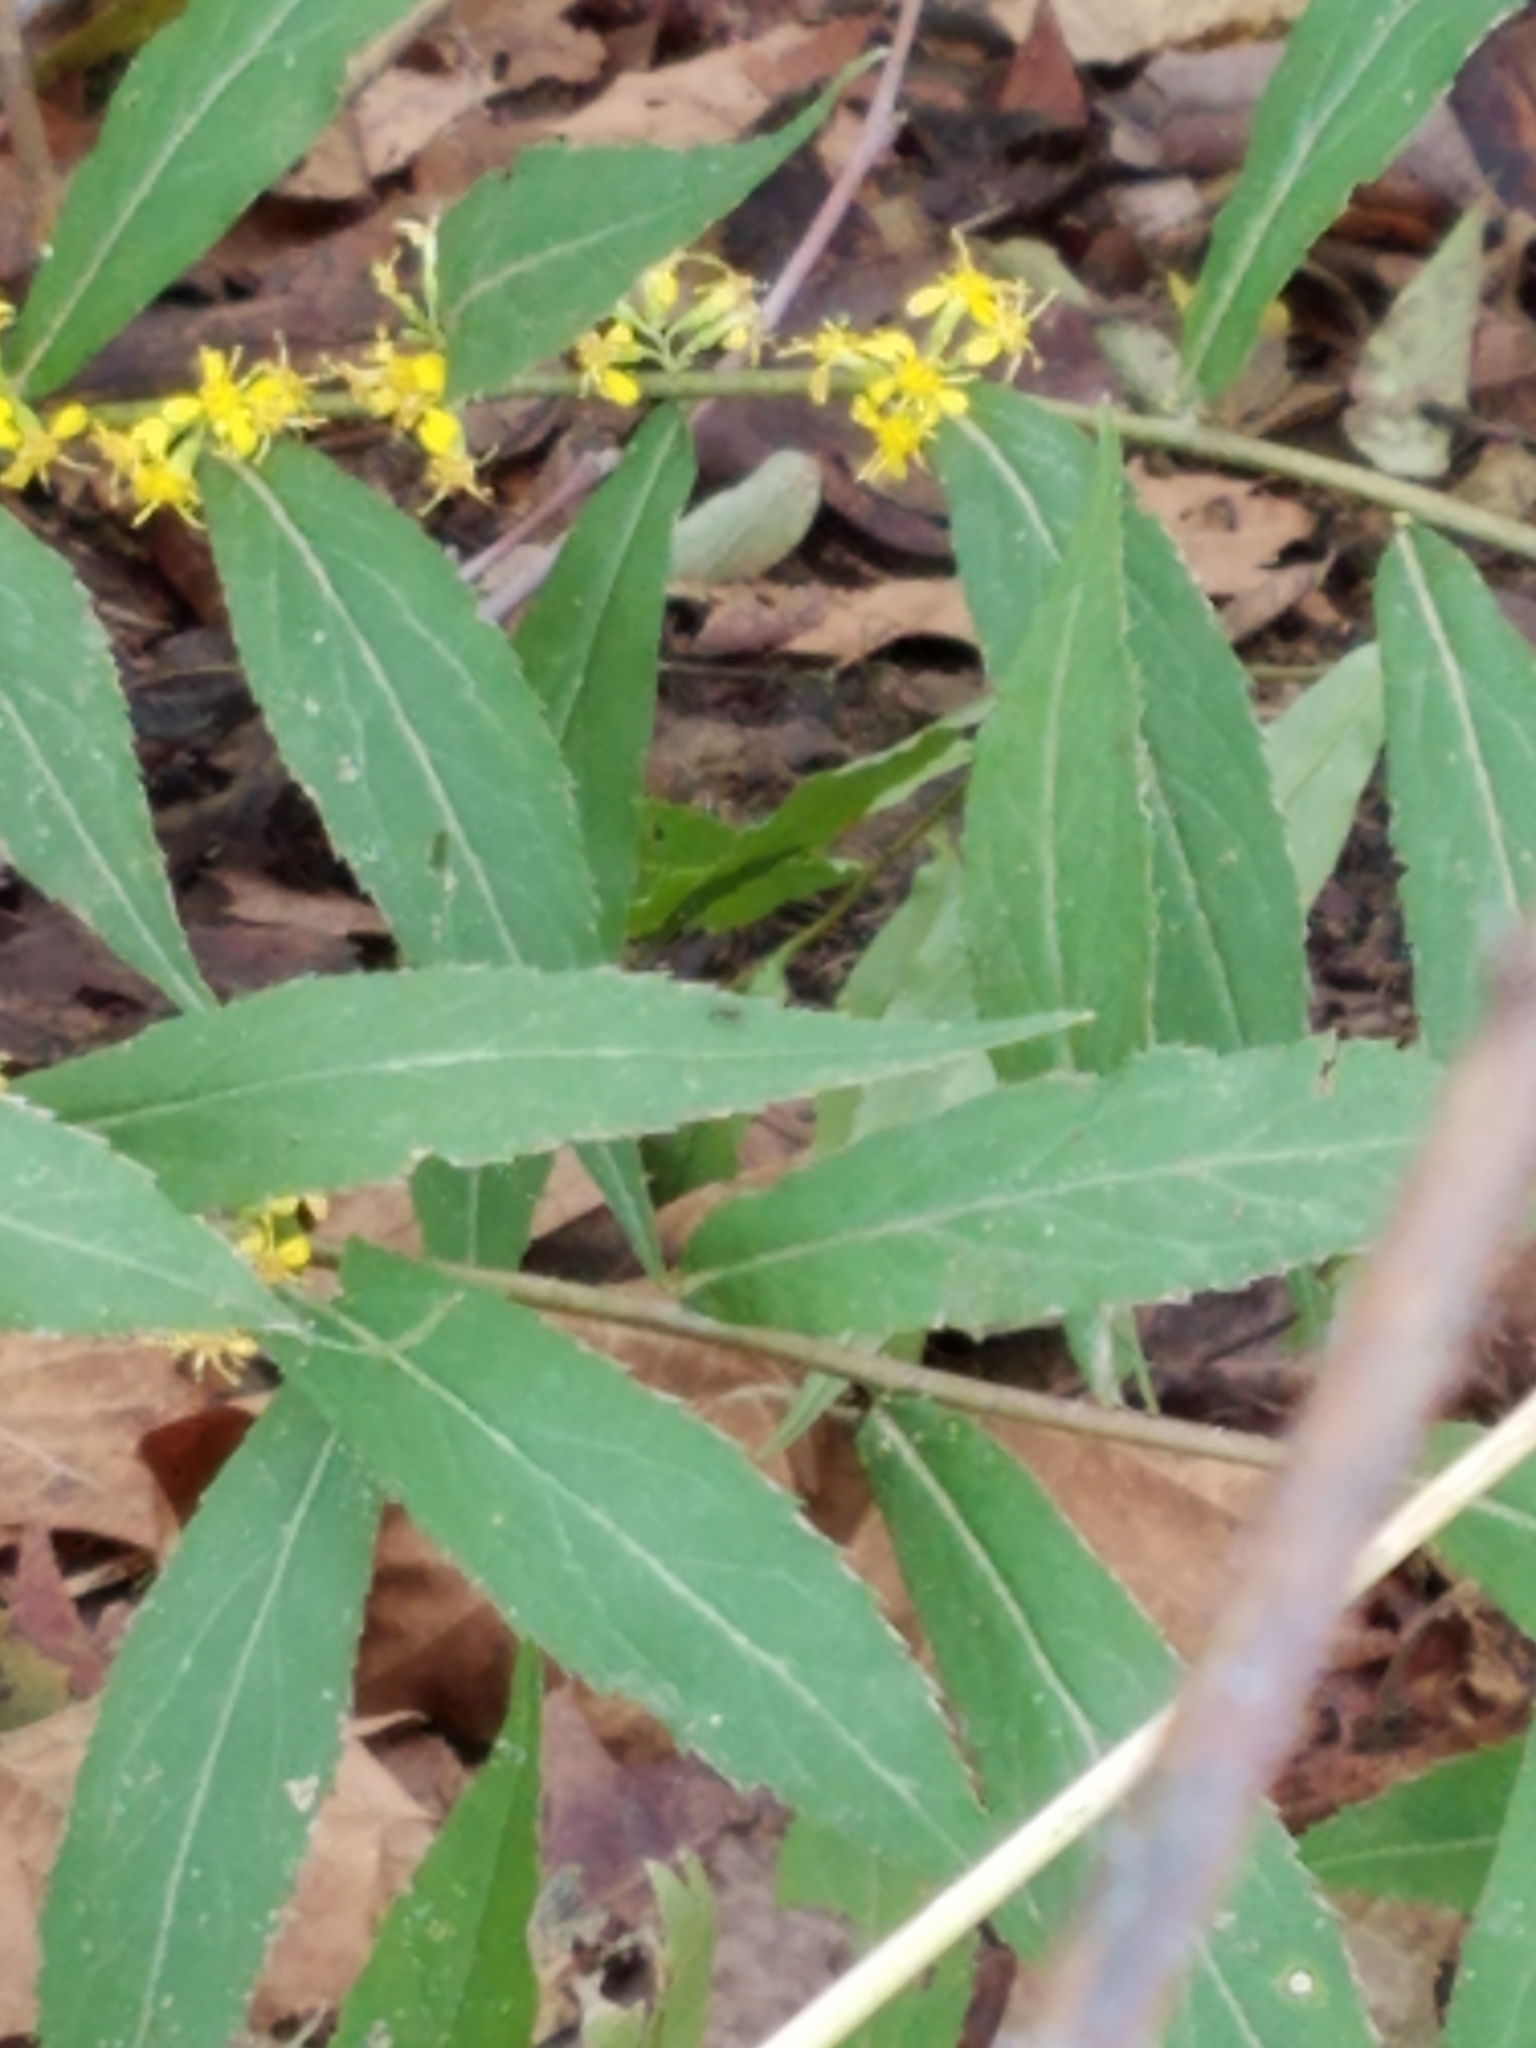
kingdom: Plantae
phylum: Tracheophyta
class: Magnoliopsida
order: Asterales
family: Asteraceae
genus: Solidago
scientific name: Solidago caesia
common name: Woodland goldenrod
